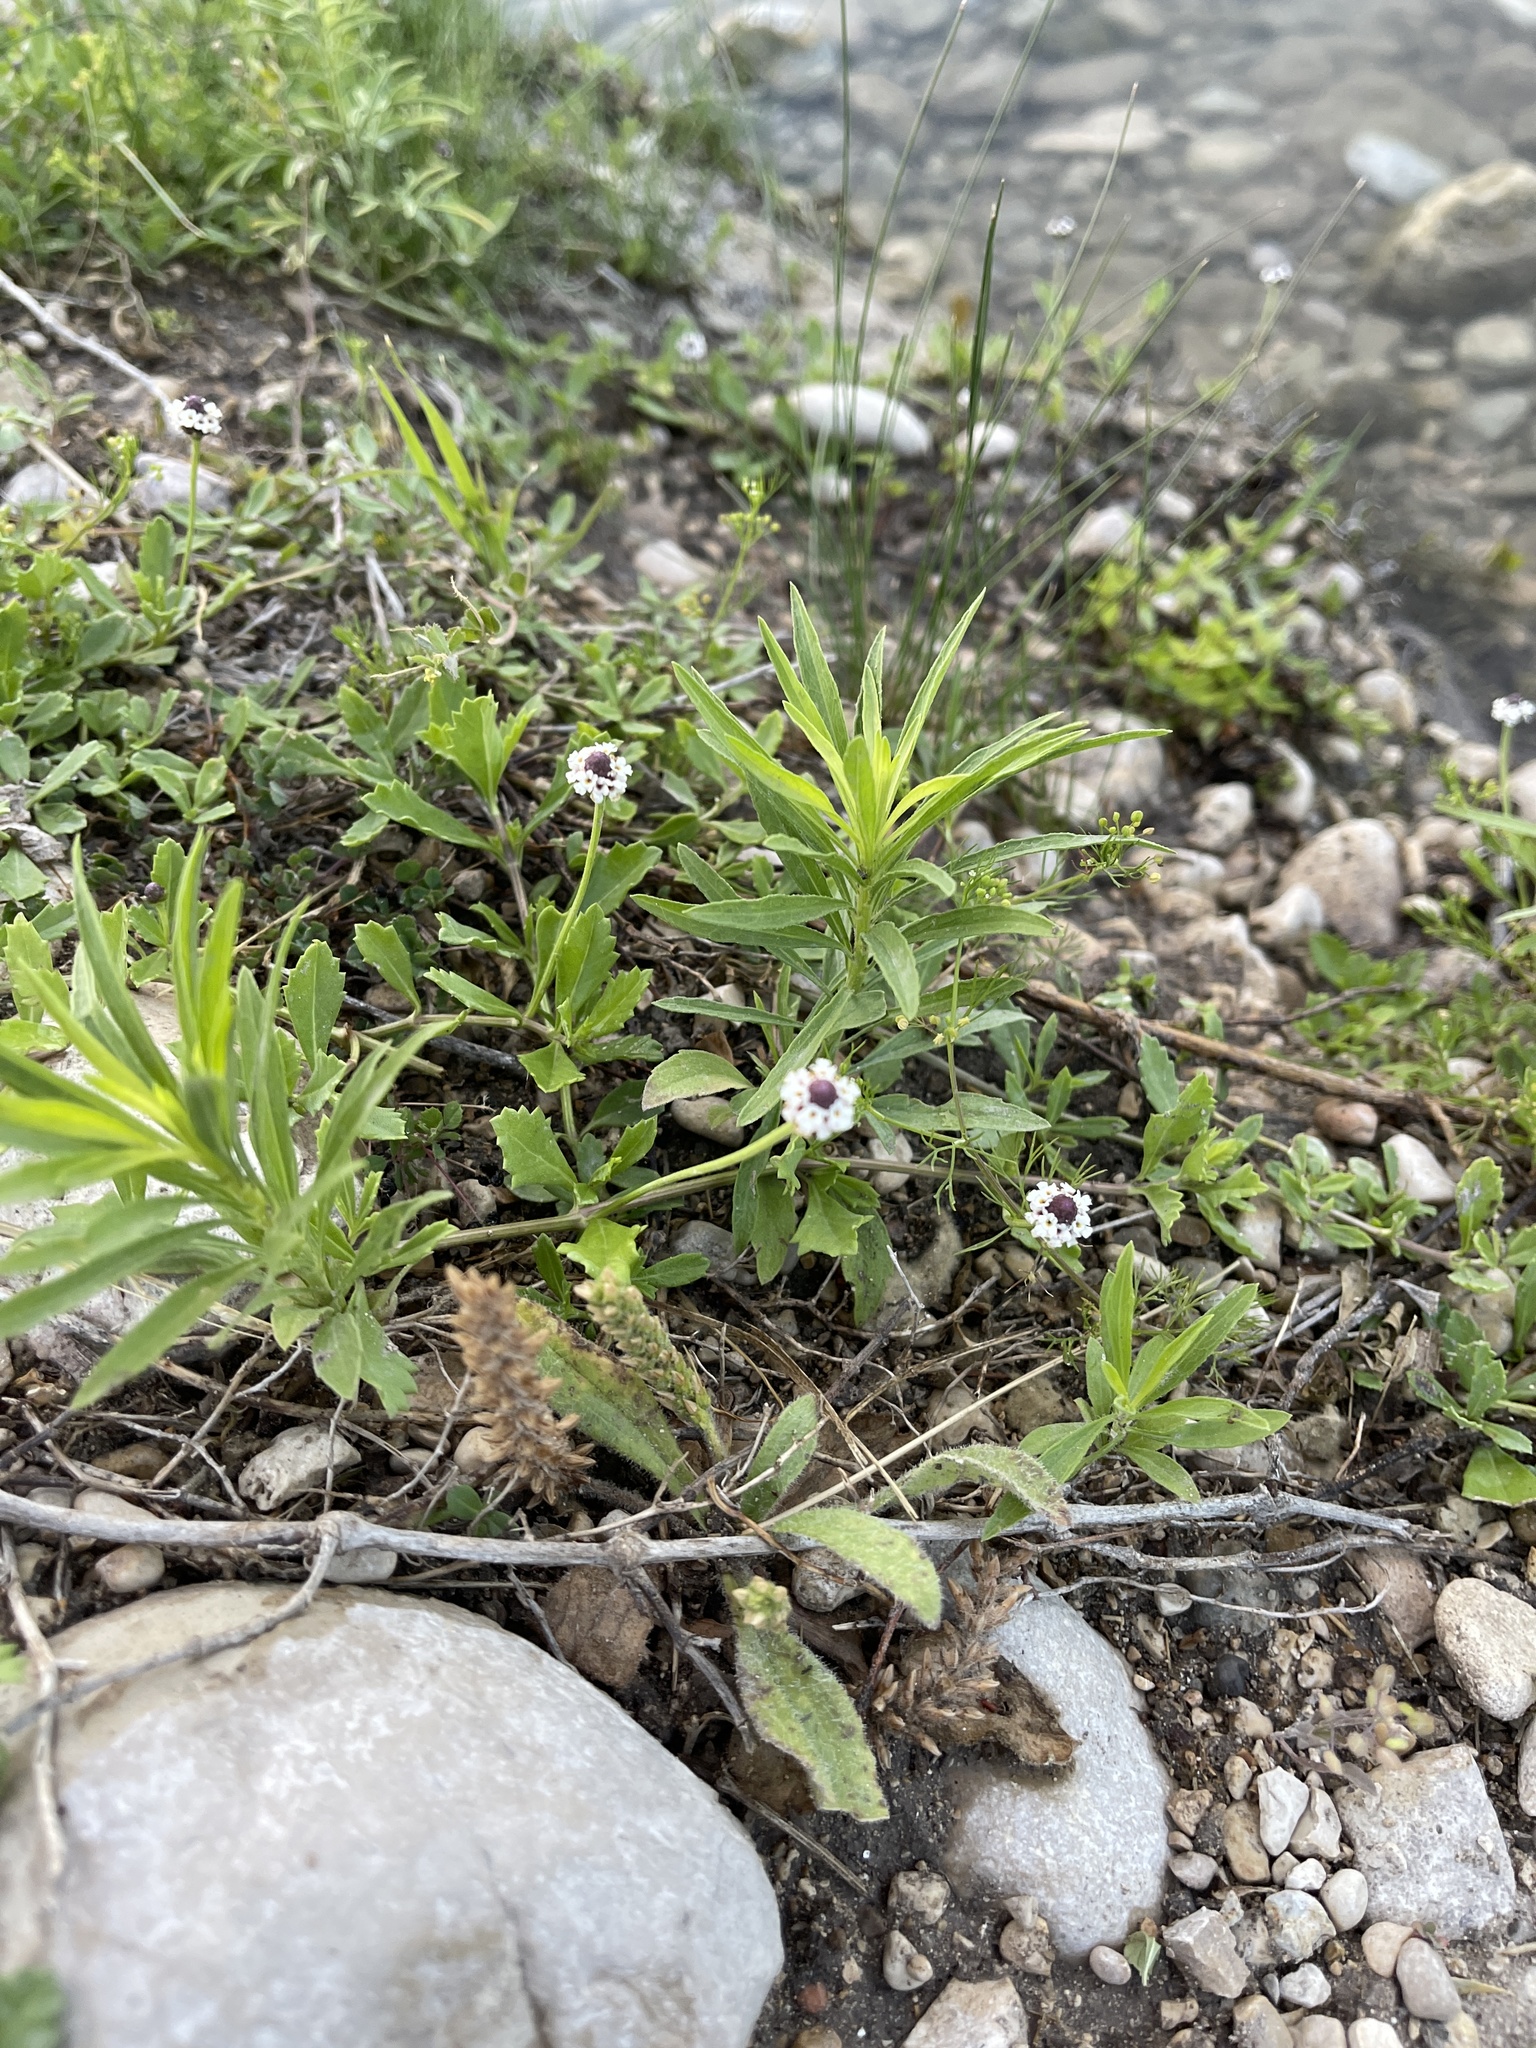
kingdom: Plantae
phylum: Tracheophyta
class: Magnoliopsida
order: Lamiales
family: Verbenaceae
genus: Phyla
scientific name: Phyla nodiflora
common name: Frogfruit
